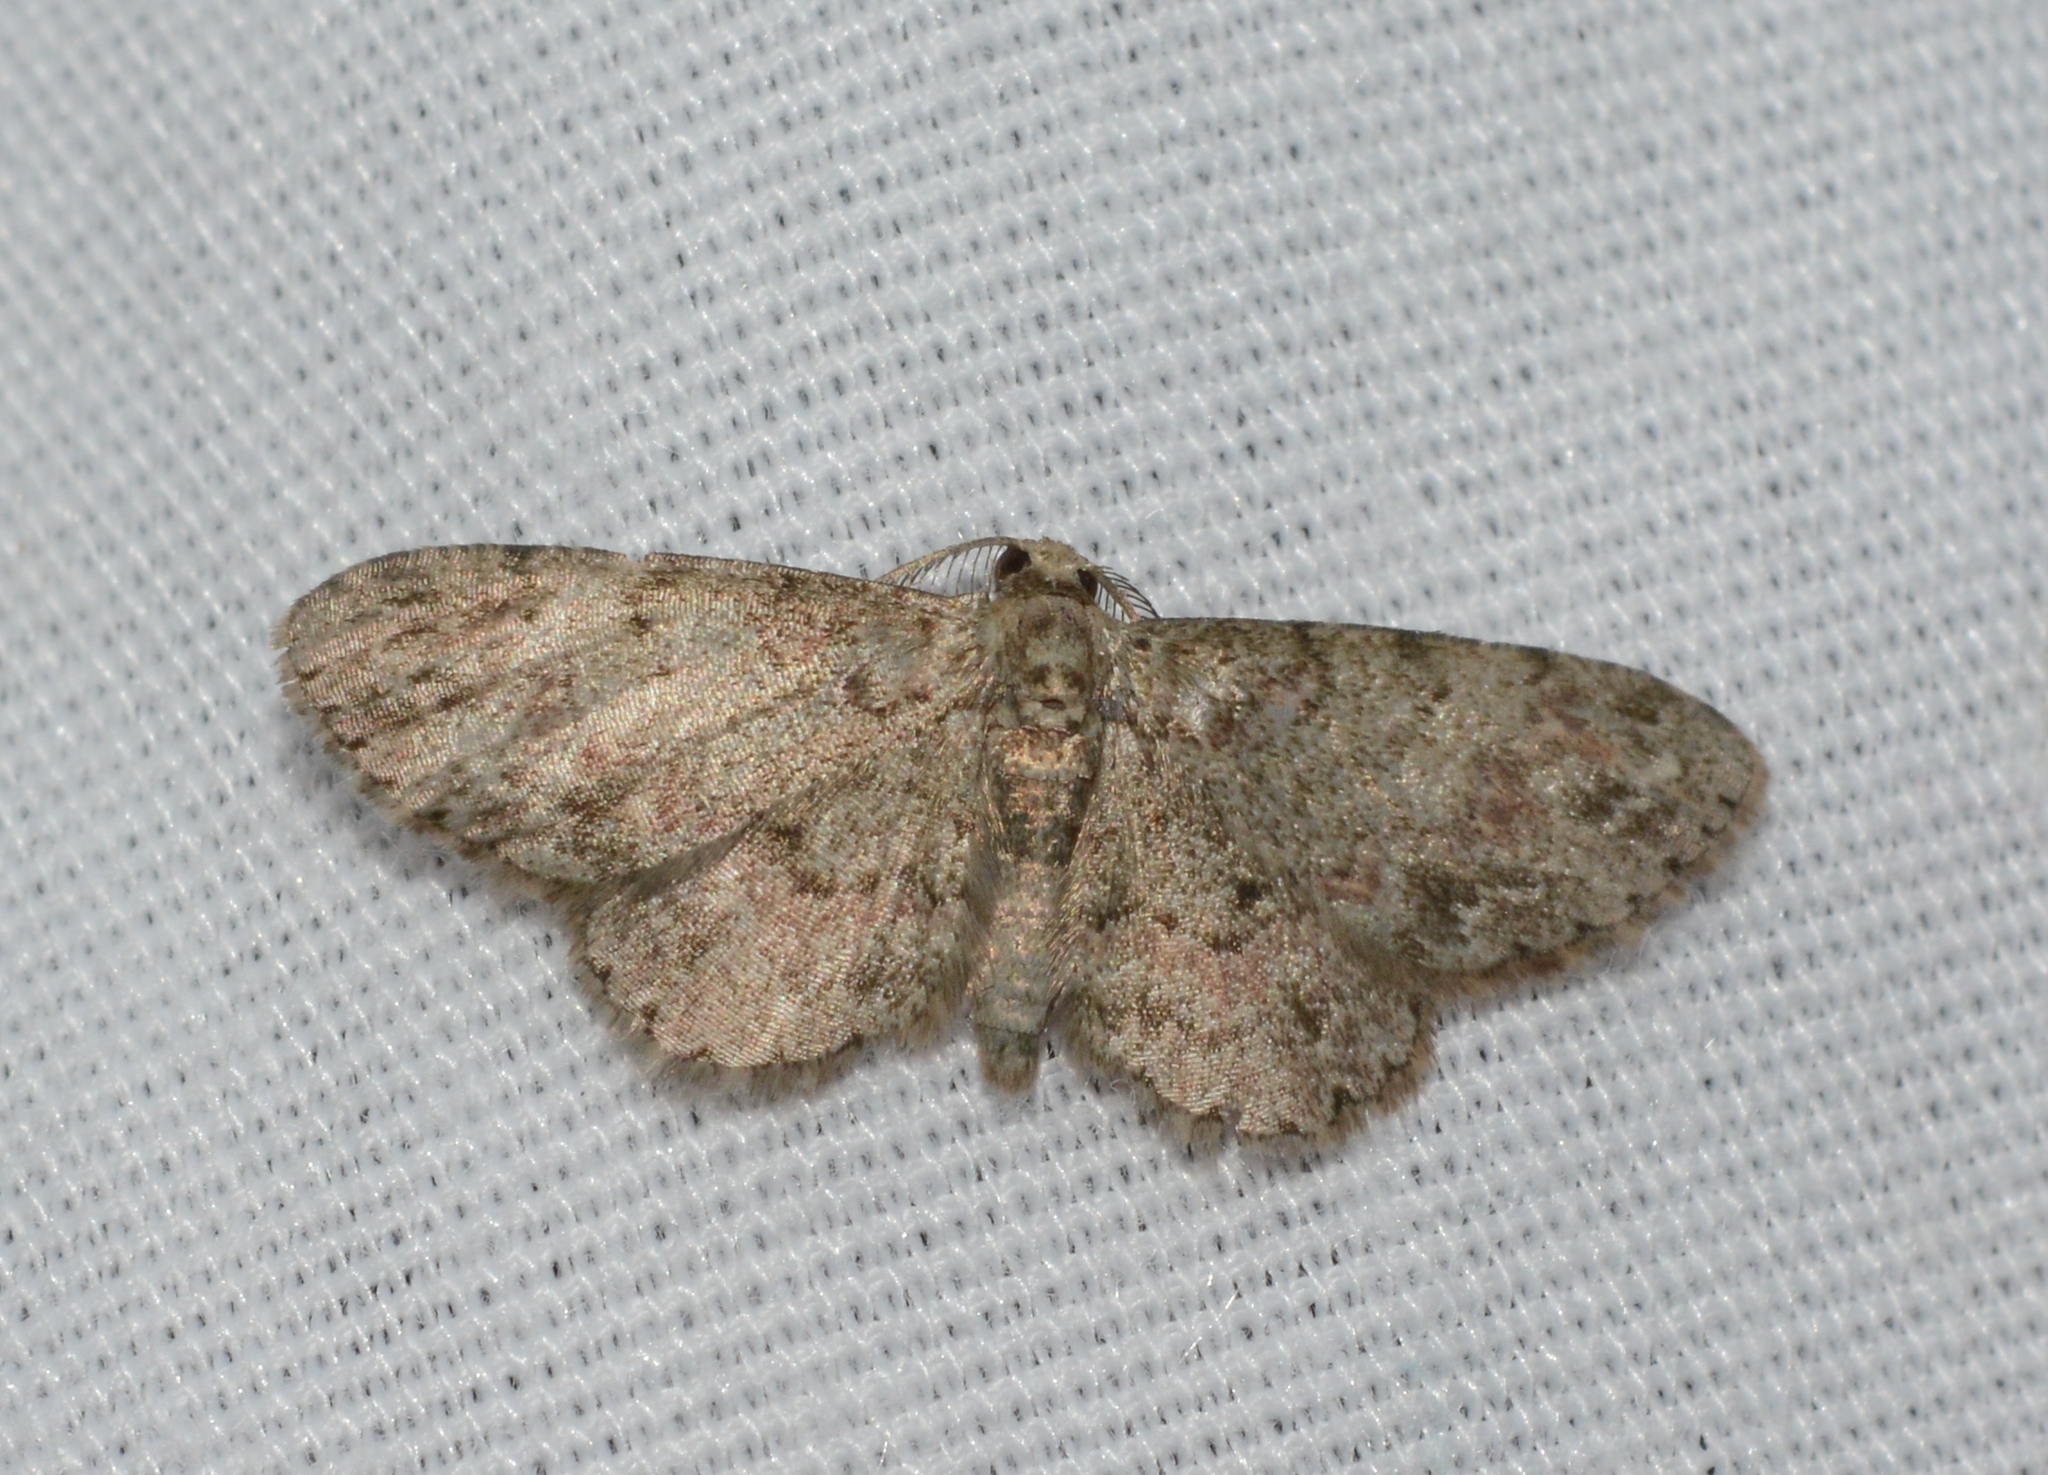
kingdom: Animalia
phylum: Arthropoda
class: Insecta
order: Lepidoptera
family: Geometridae
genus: Glenoides
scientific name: Glenoides texanaria
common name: Texas gray
